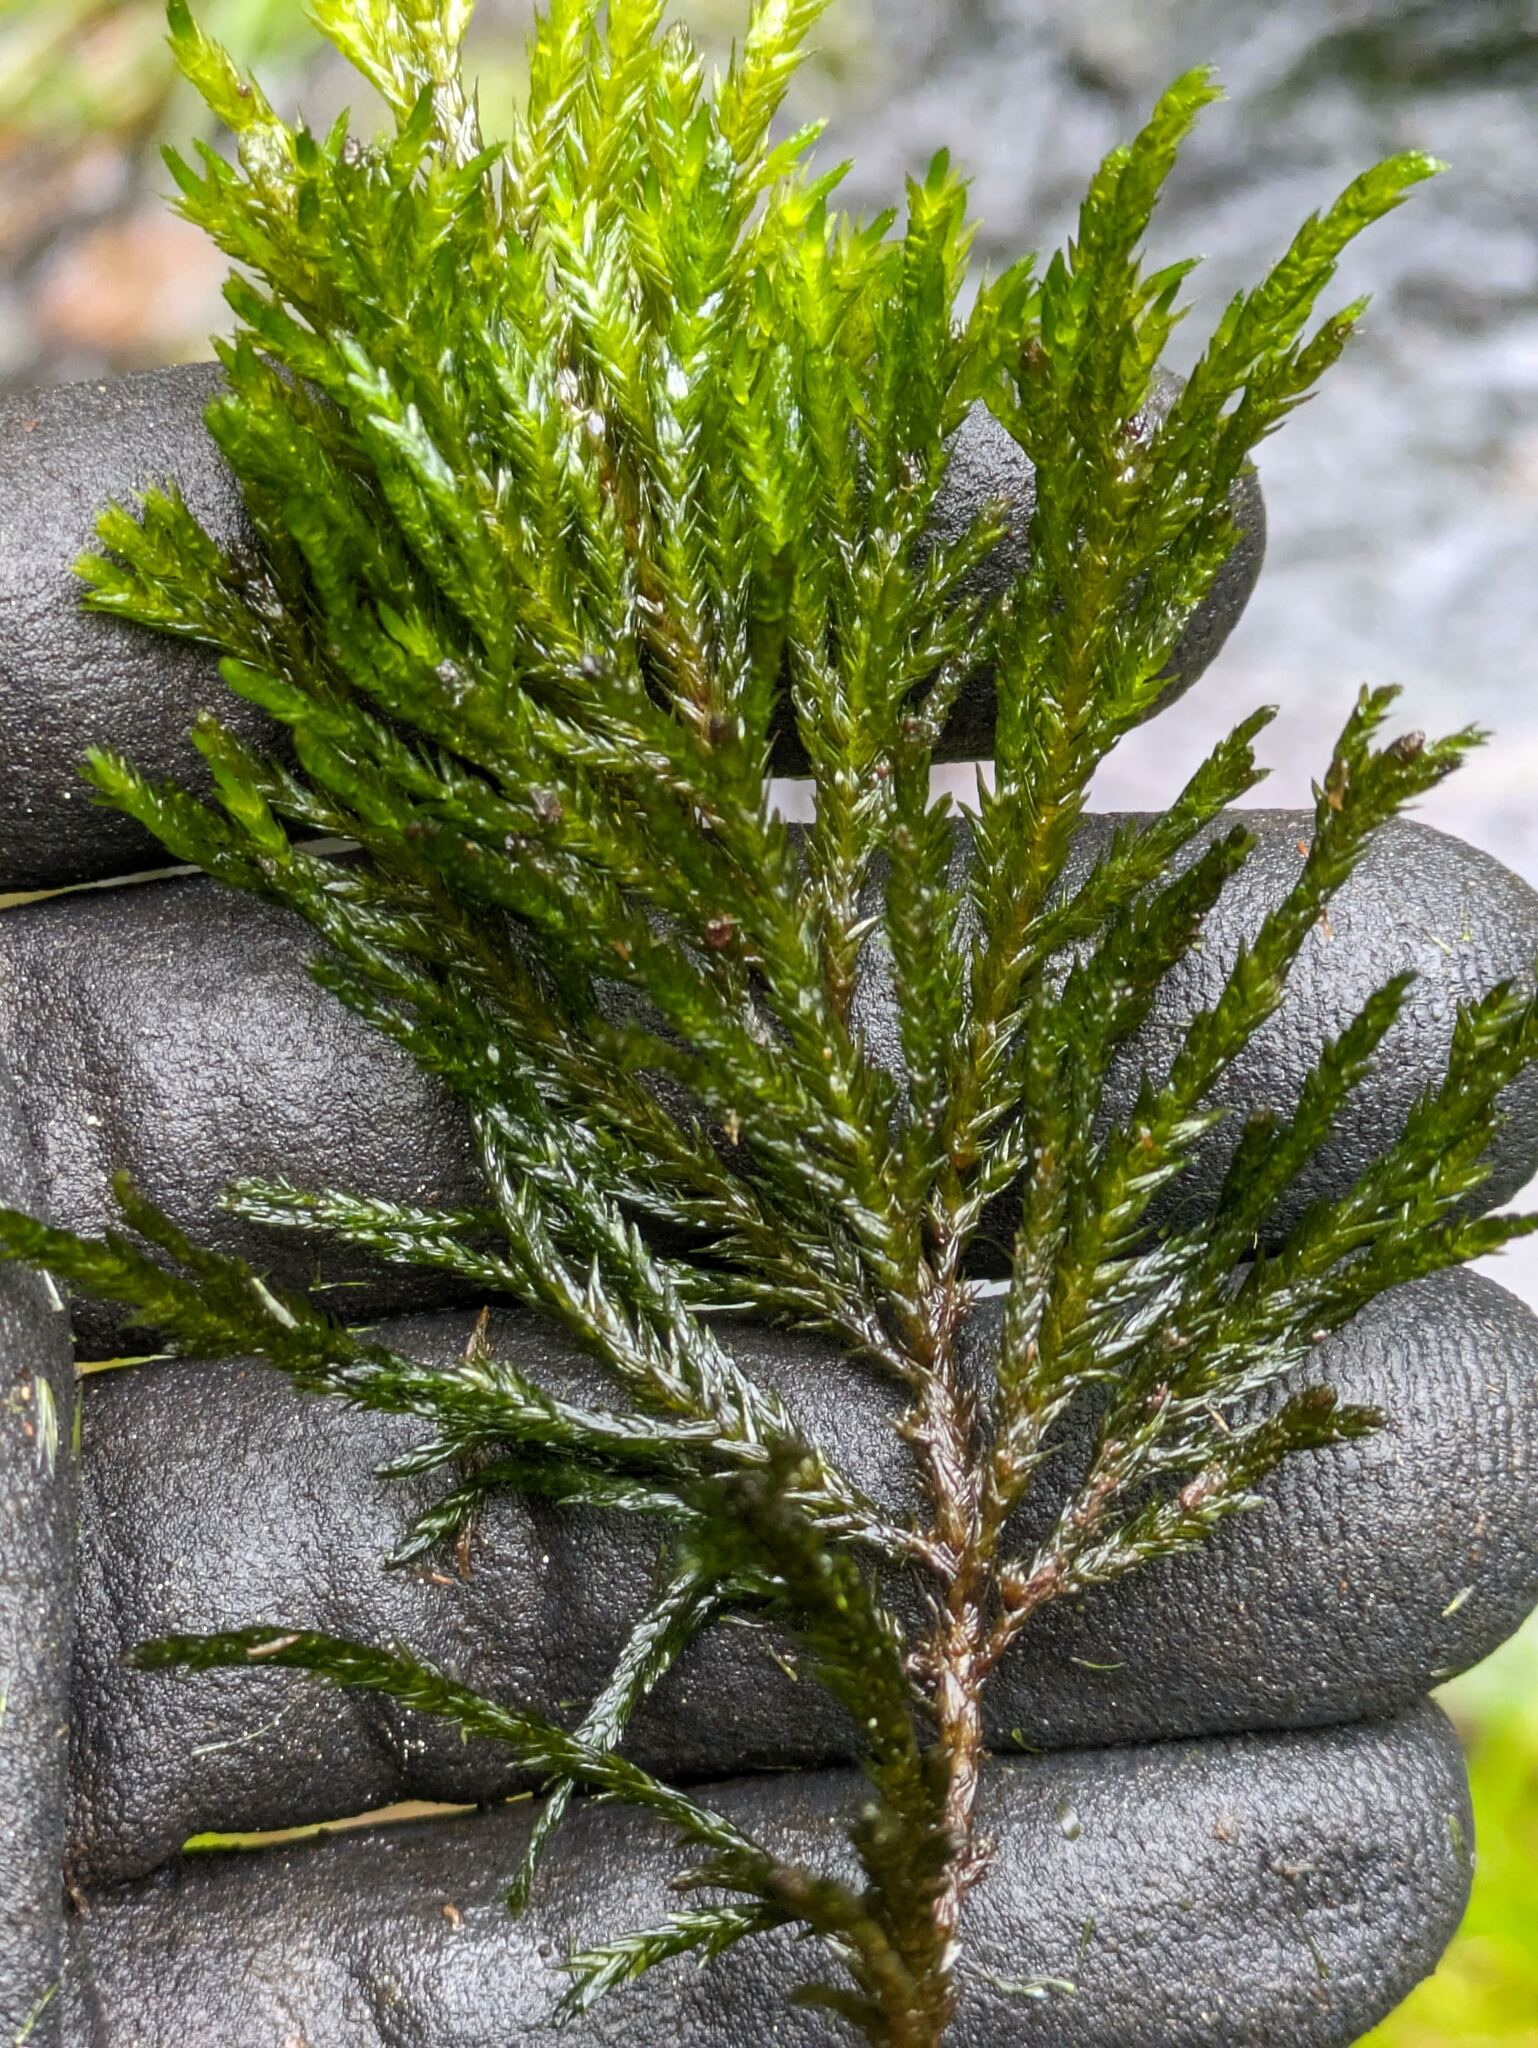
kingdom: Plantae
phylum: Bryophyta
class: Bryopsida
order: Hypnales
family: Amblystegiaceae
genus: Limbella
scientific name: Limbella tricostata
